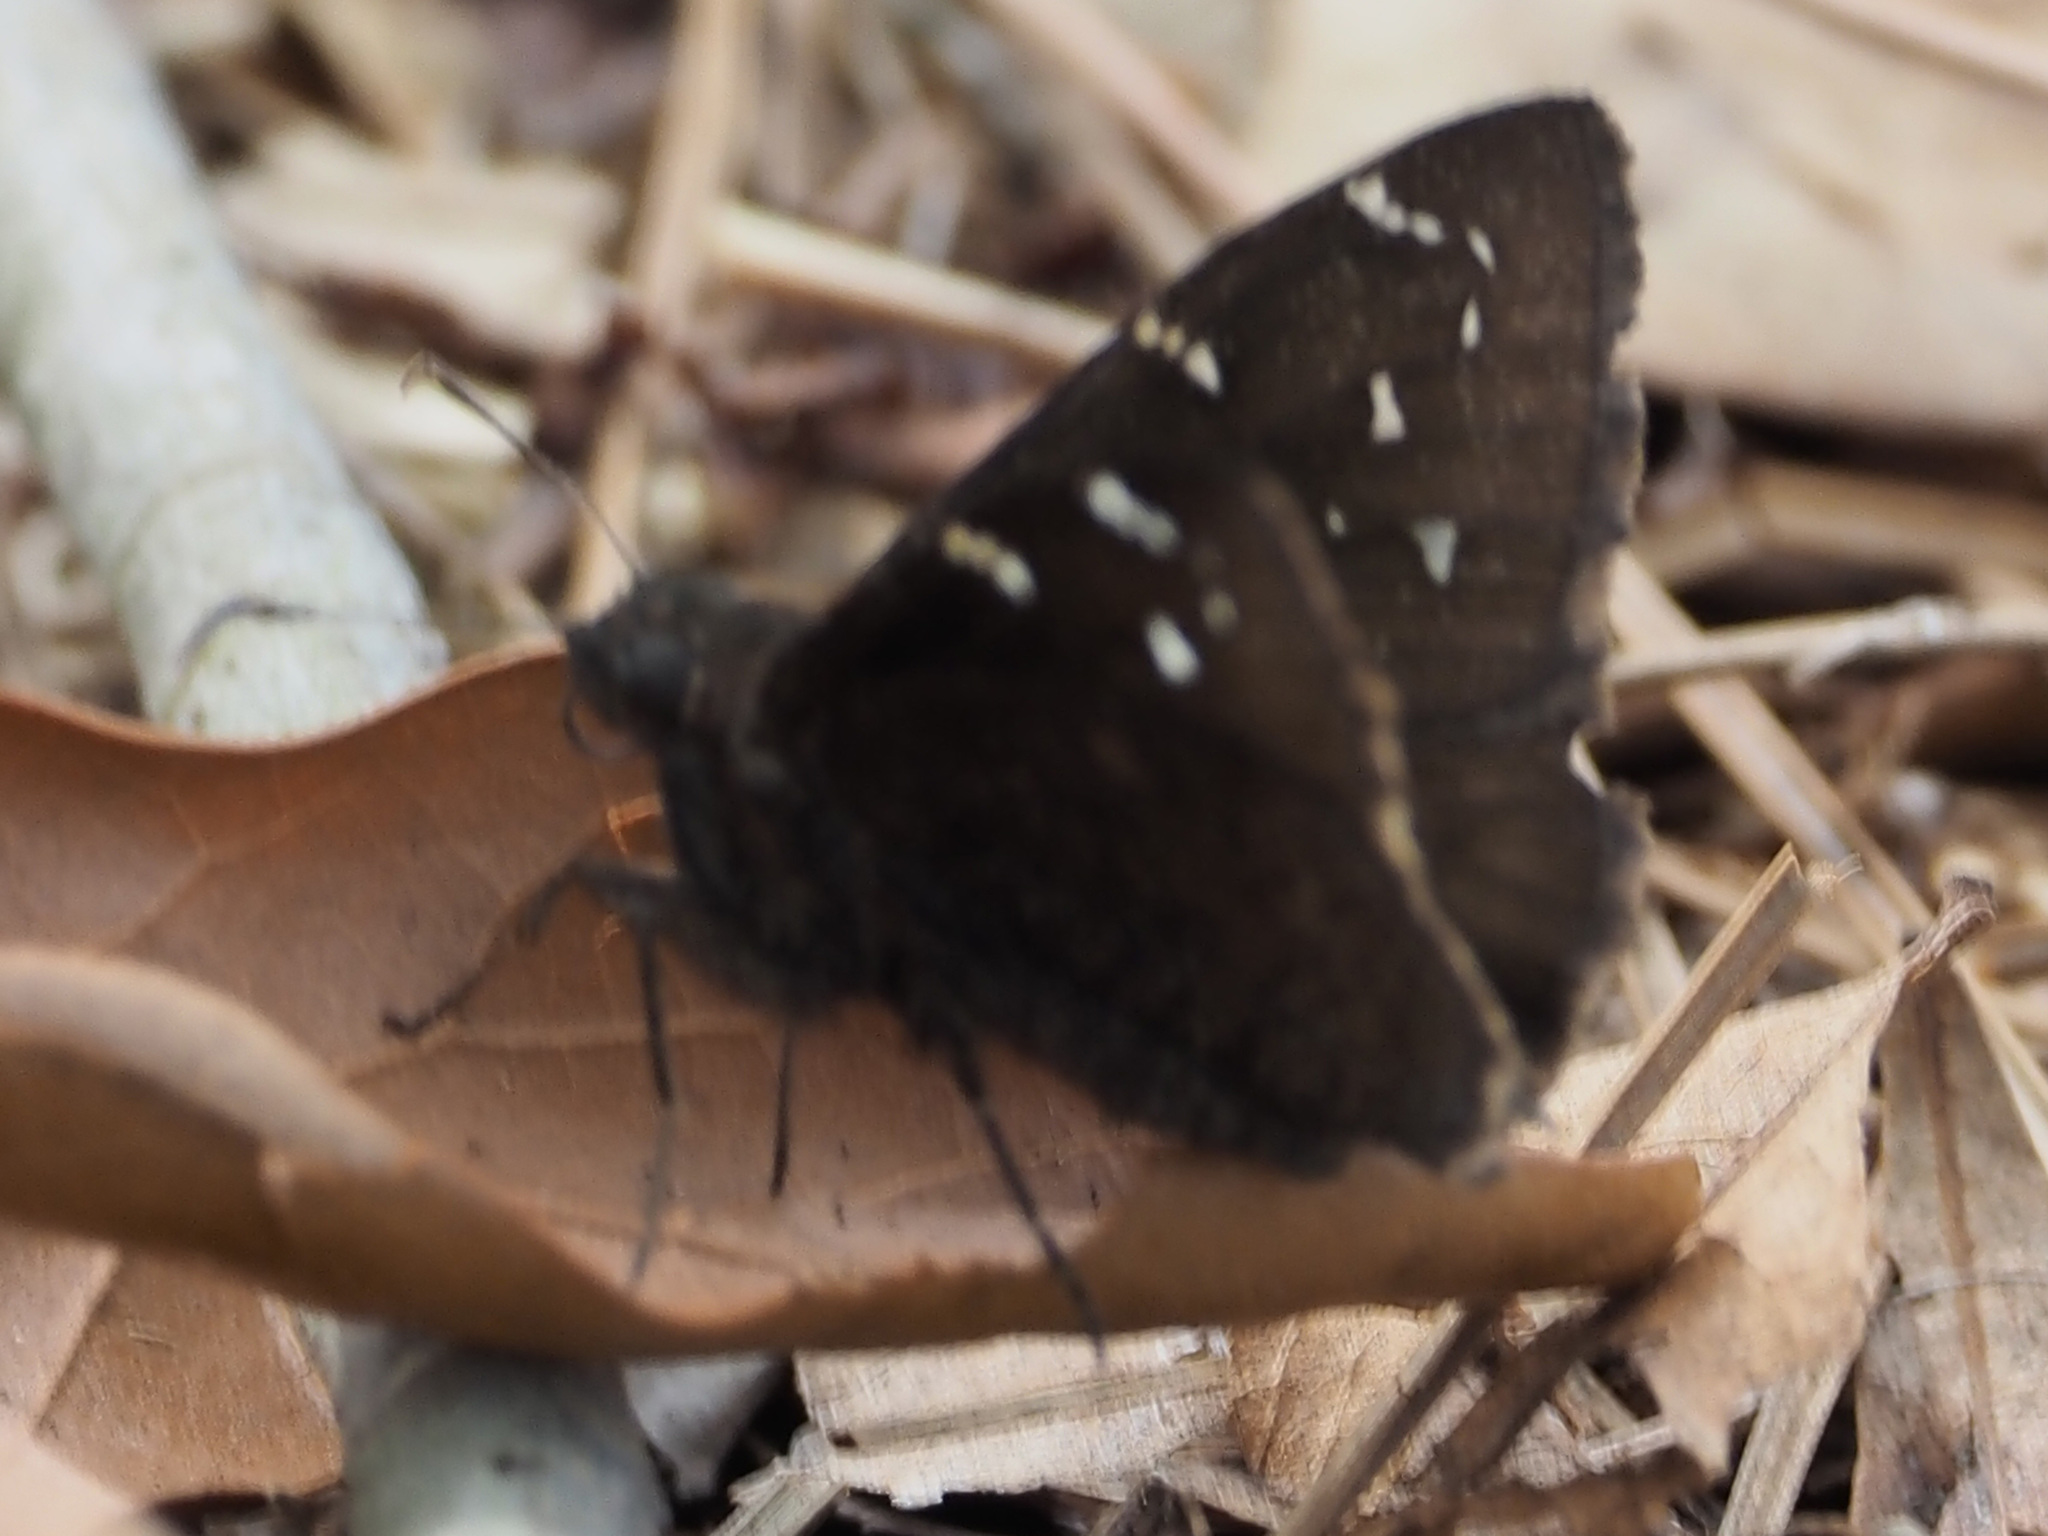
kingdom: Animalia
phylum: Arthropoda
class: Insecta
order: Lepidoptera
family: Hesperiidae
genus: Thorybes
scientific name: Thorybes pylades
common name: Northern cloudywing
